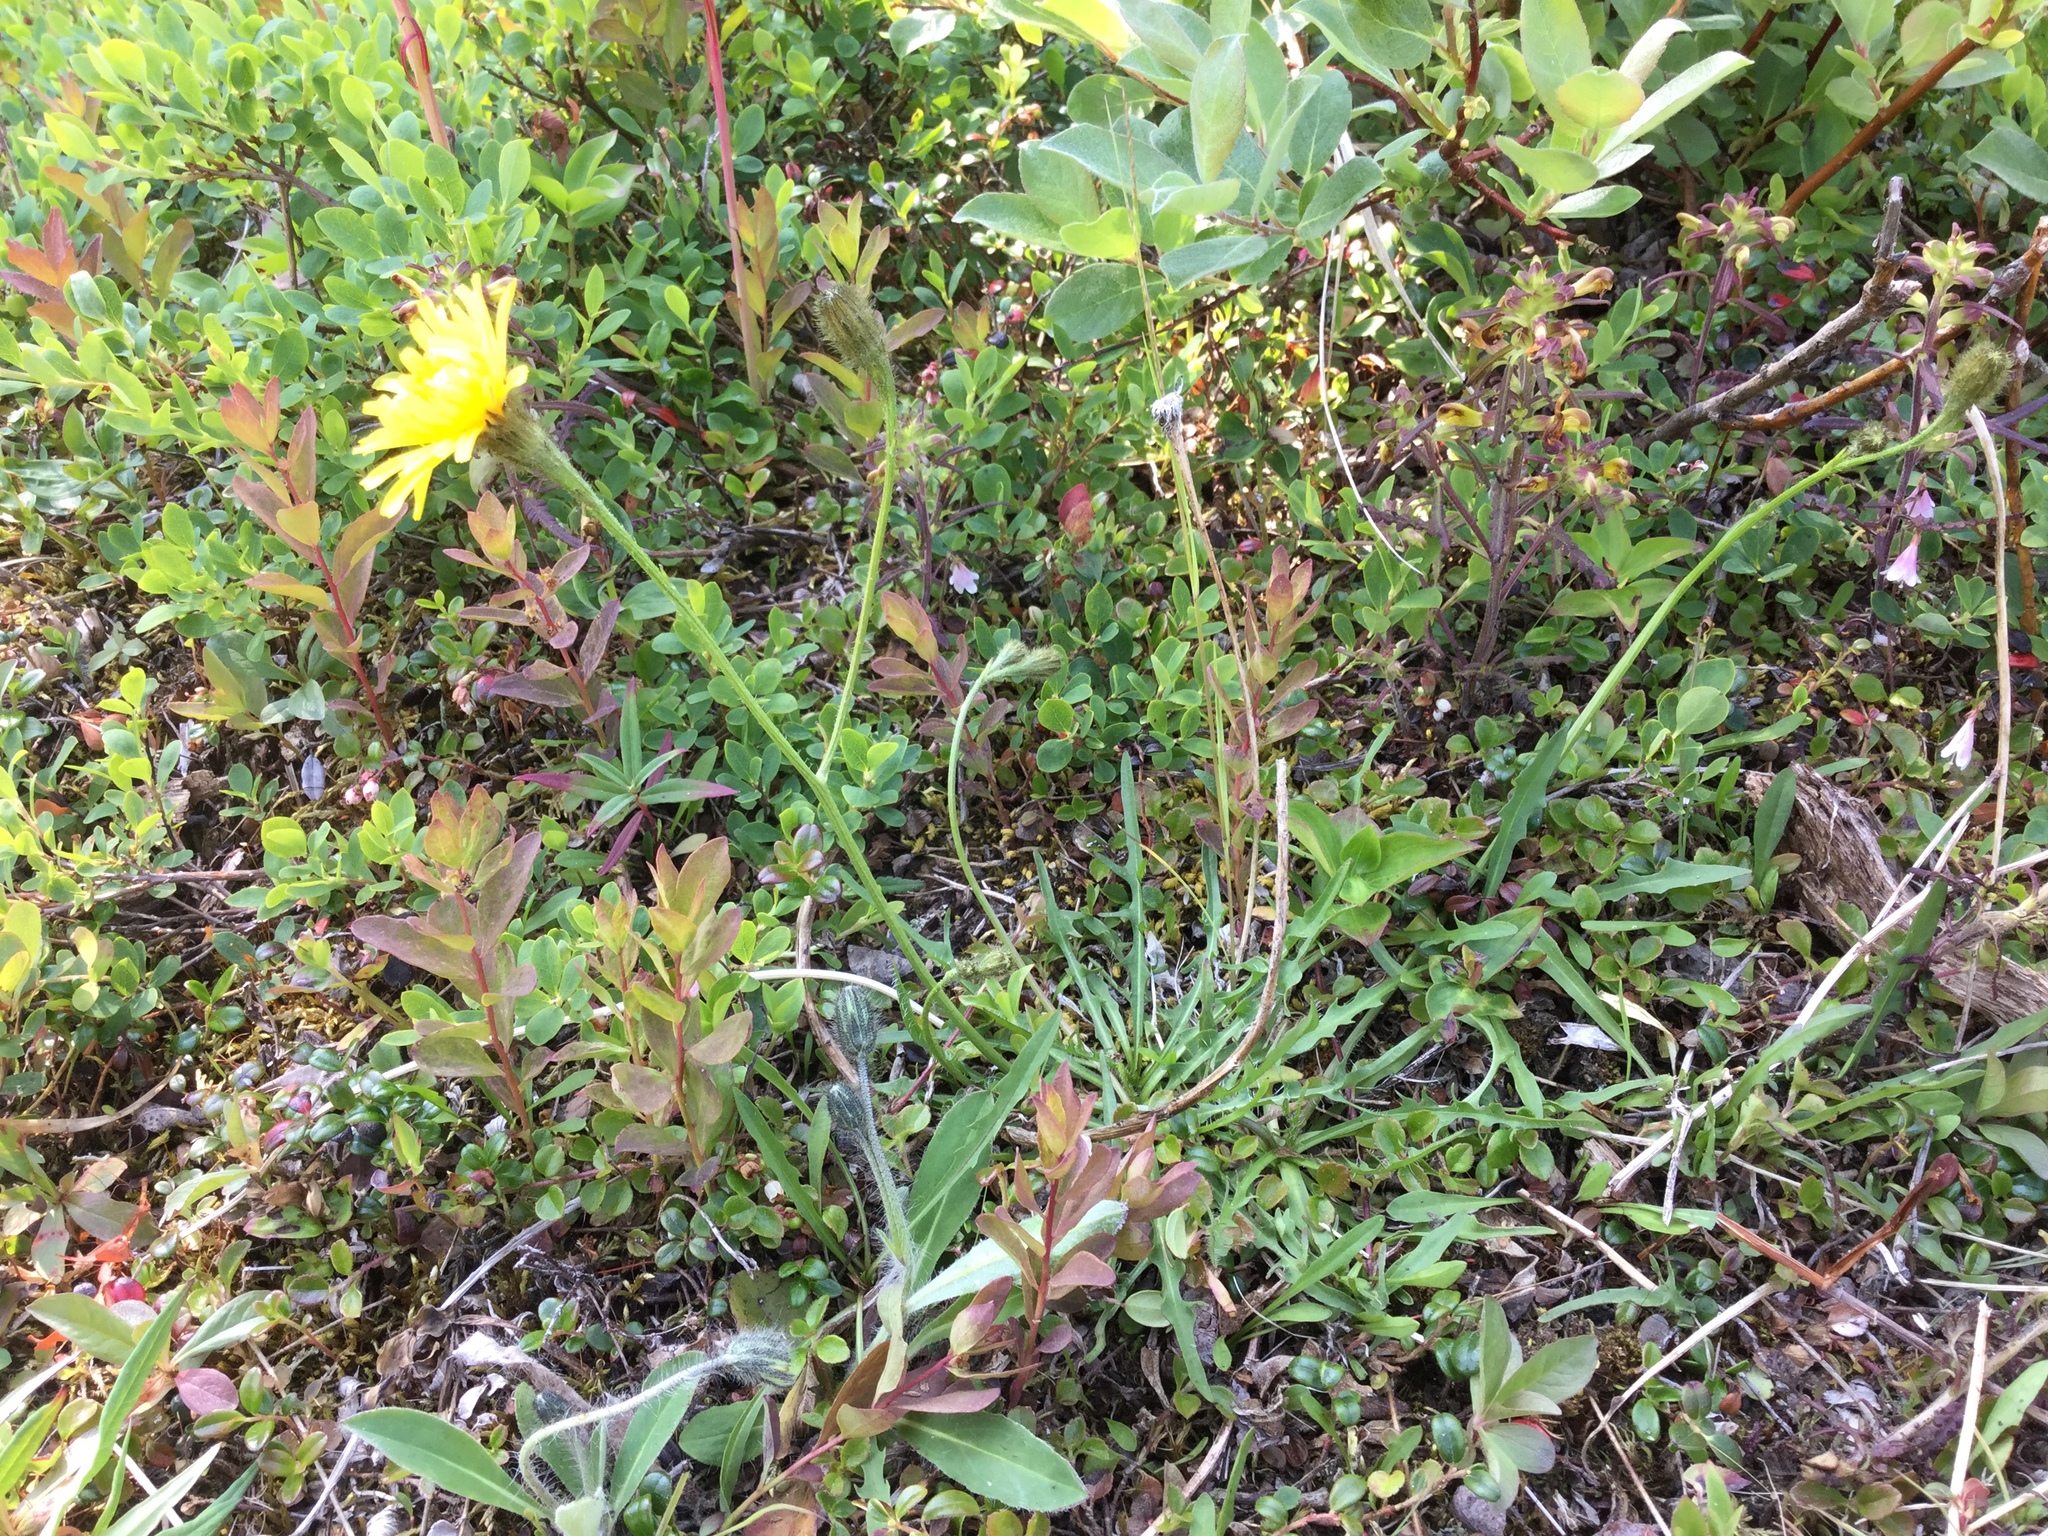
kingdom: Plantae
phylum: Tracheophyta
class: Magnoliopsida
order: Asterales
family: Asteraceae
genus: Scorzoneroides
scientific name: Scorzoneroides autumnalis
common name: Autumn hawkbit
